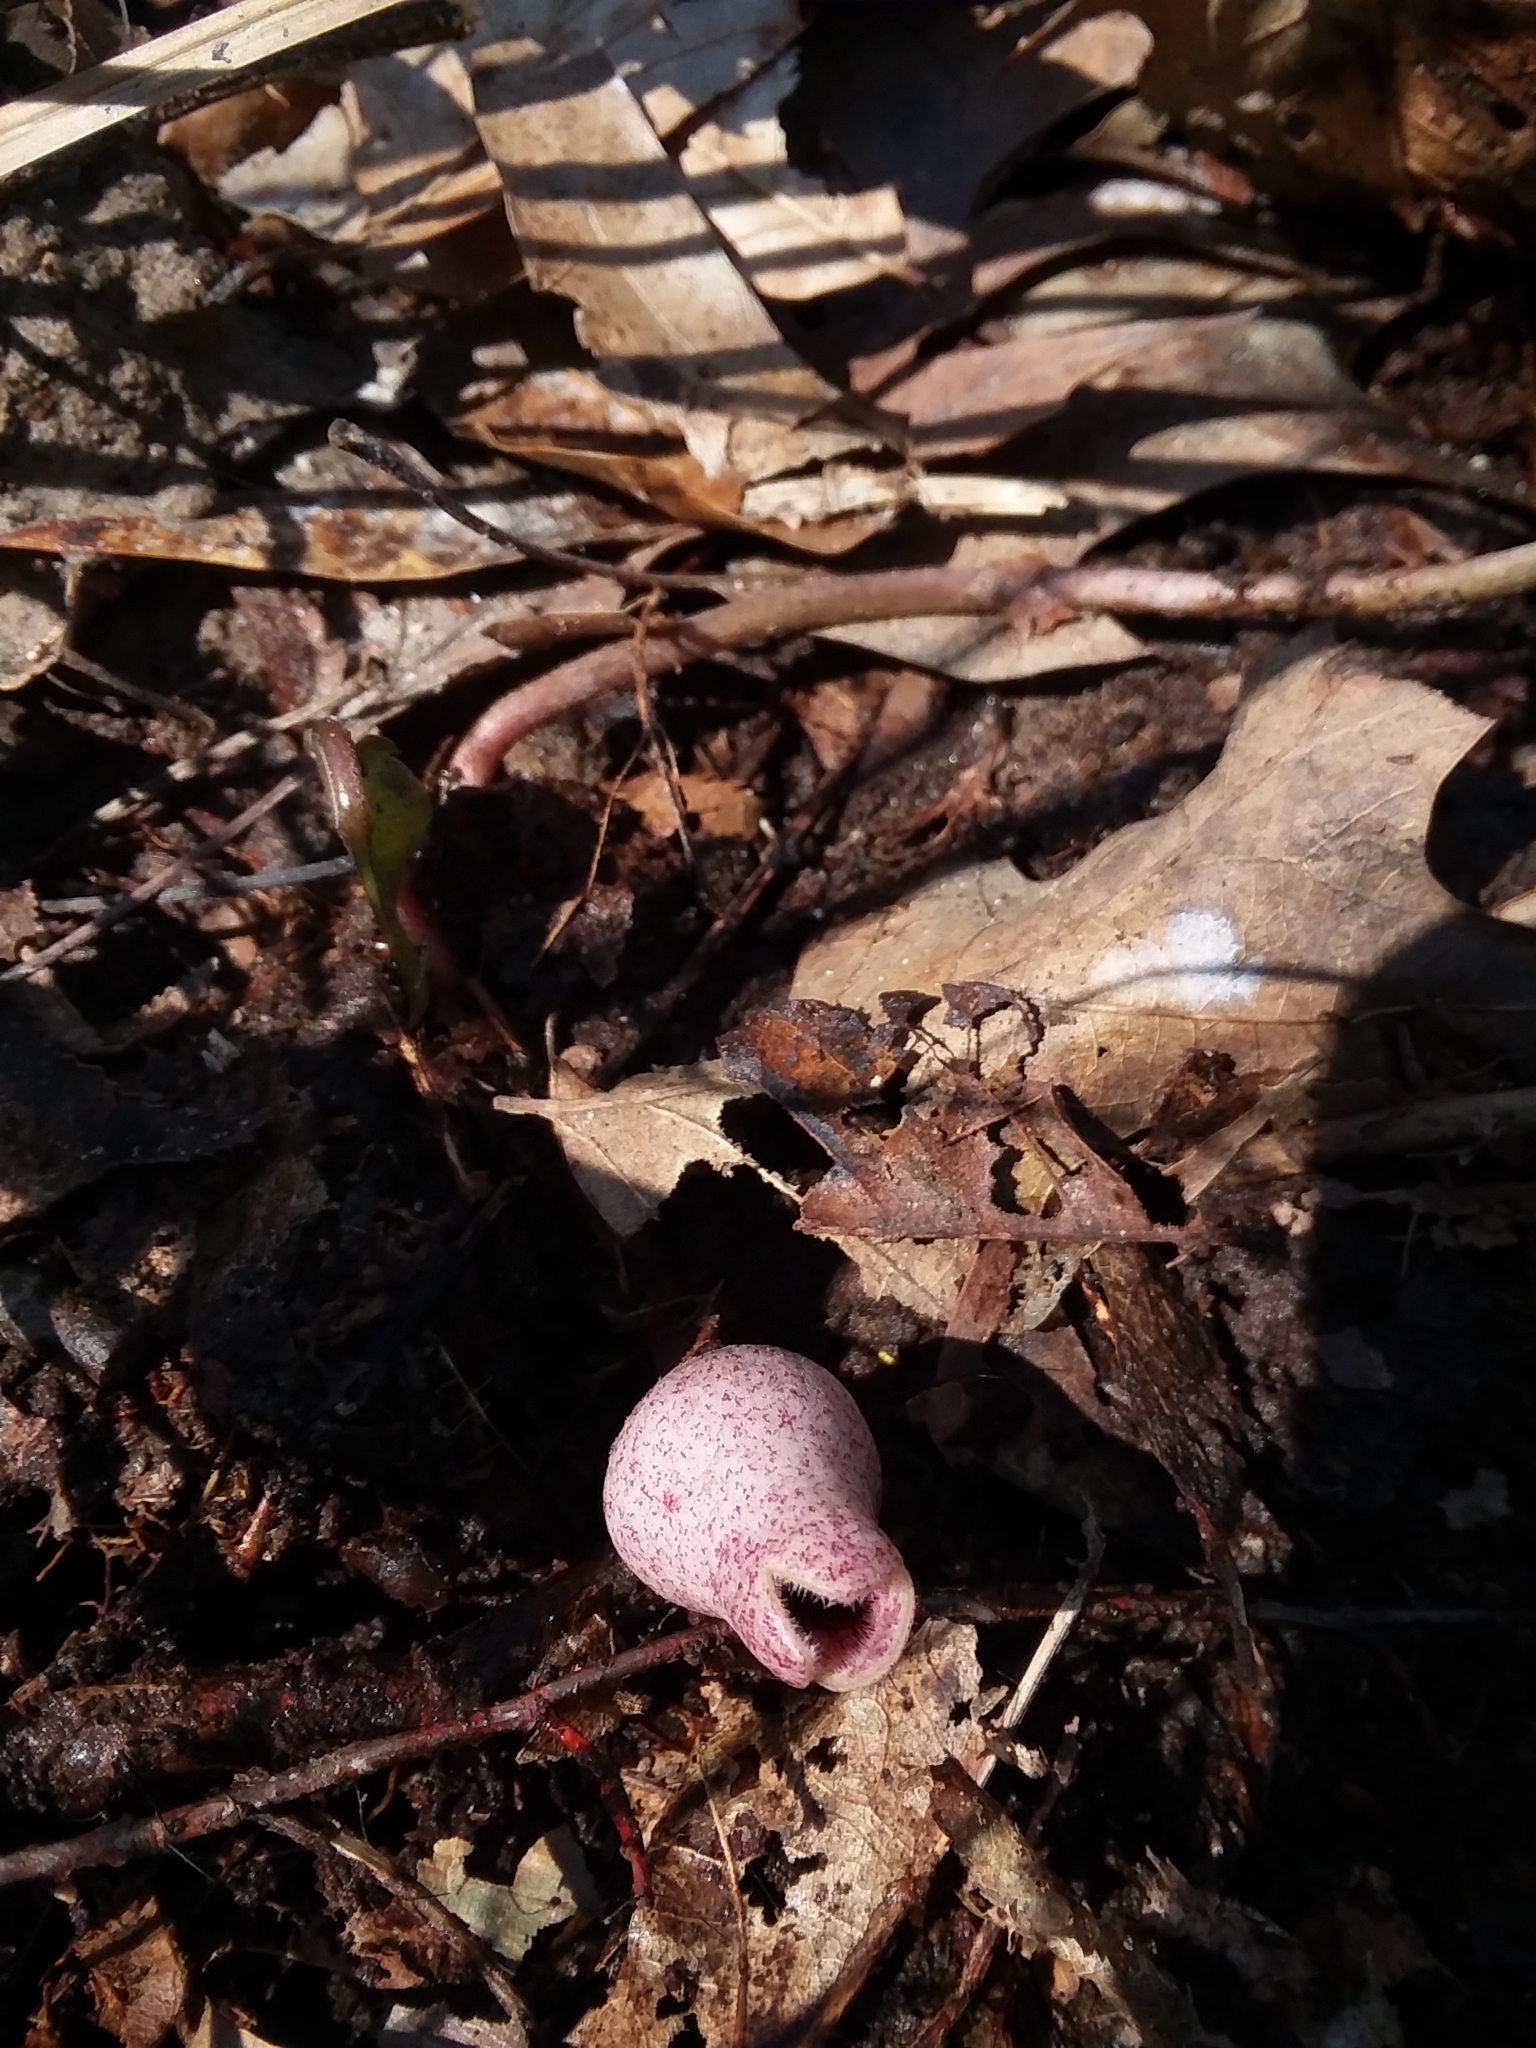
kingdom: Plantae
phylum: Tracheophyta
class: Magnoliopsida
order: Piperales
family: Aristolochiaceae
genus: Hexastylis
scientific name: Hexastylis arifolia
